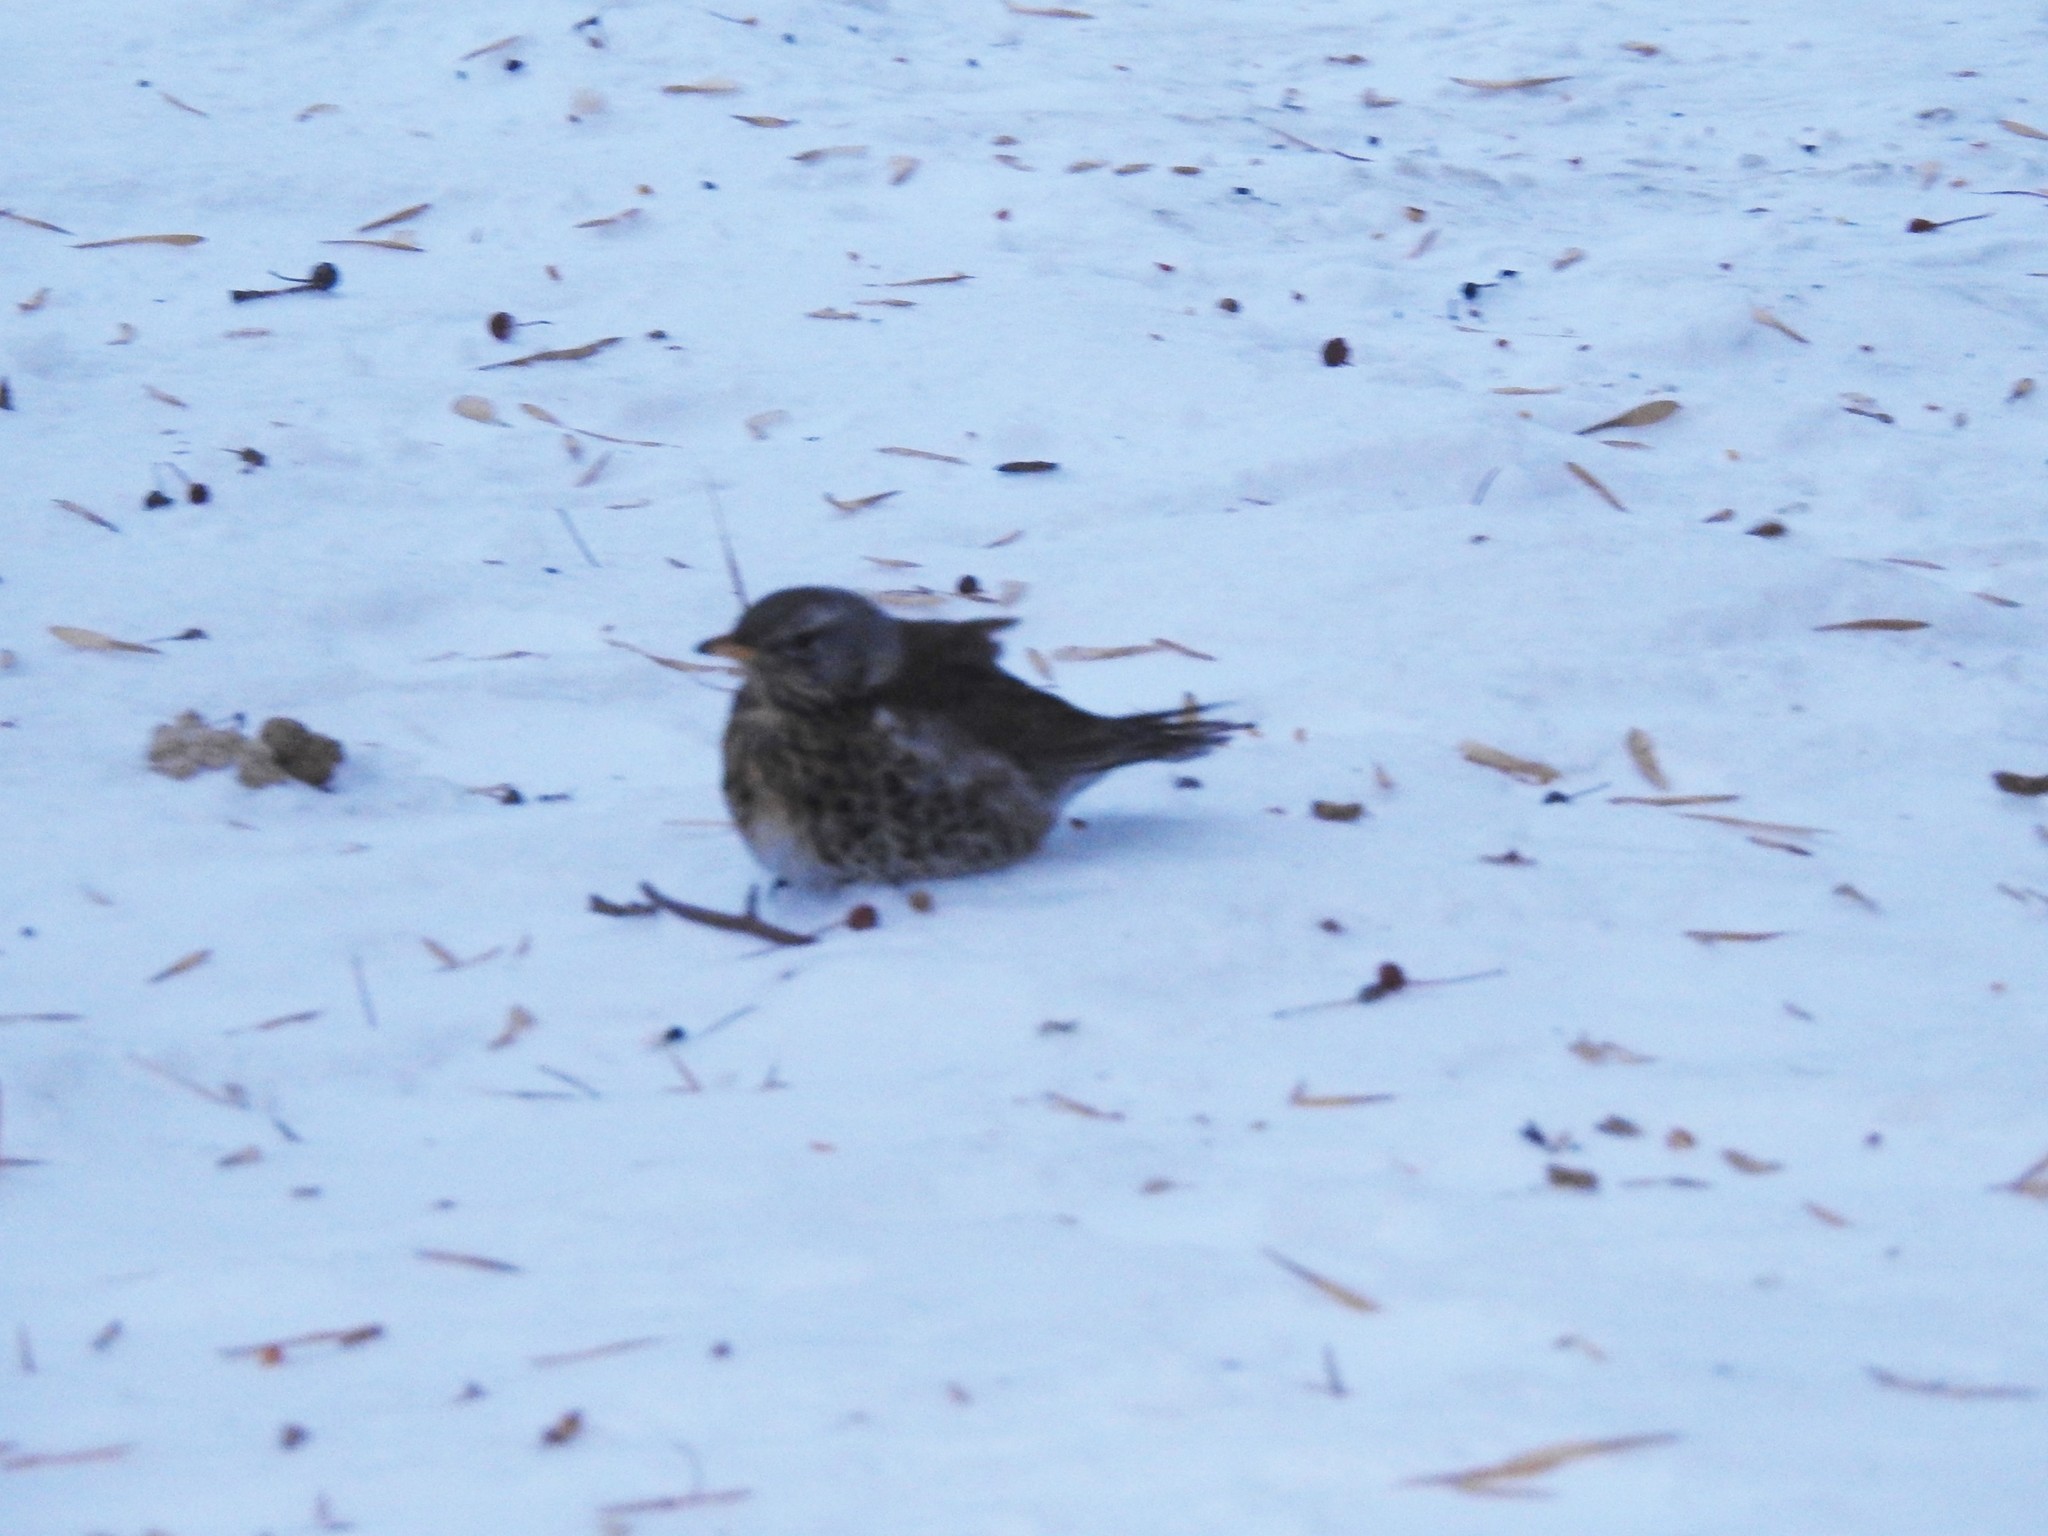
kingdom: Animalia
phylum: Chordata
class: Aves
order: Passeriformes
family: Turdidae
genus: Turdus
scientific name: Turdus pilaris
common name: Fieldfare
